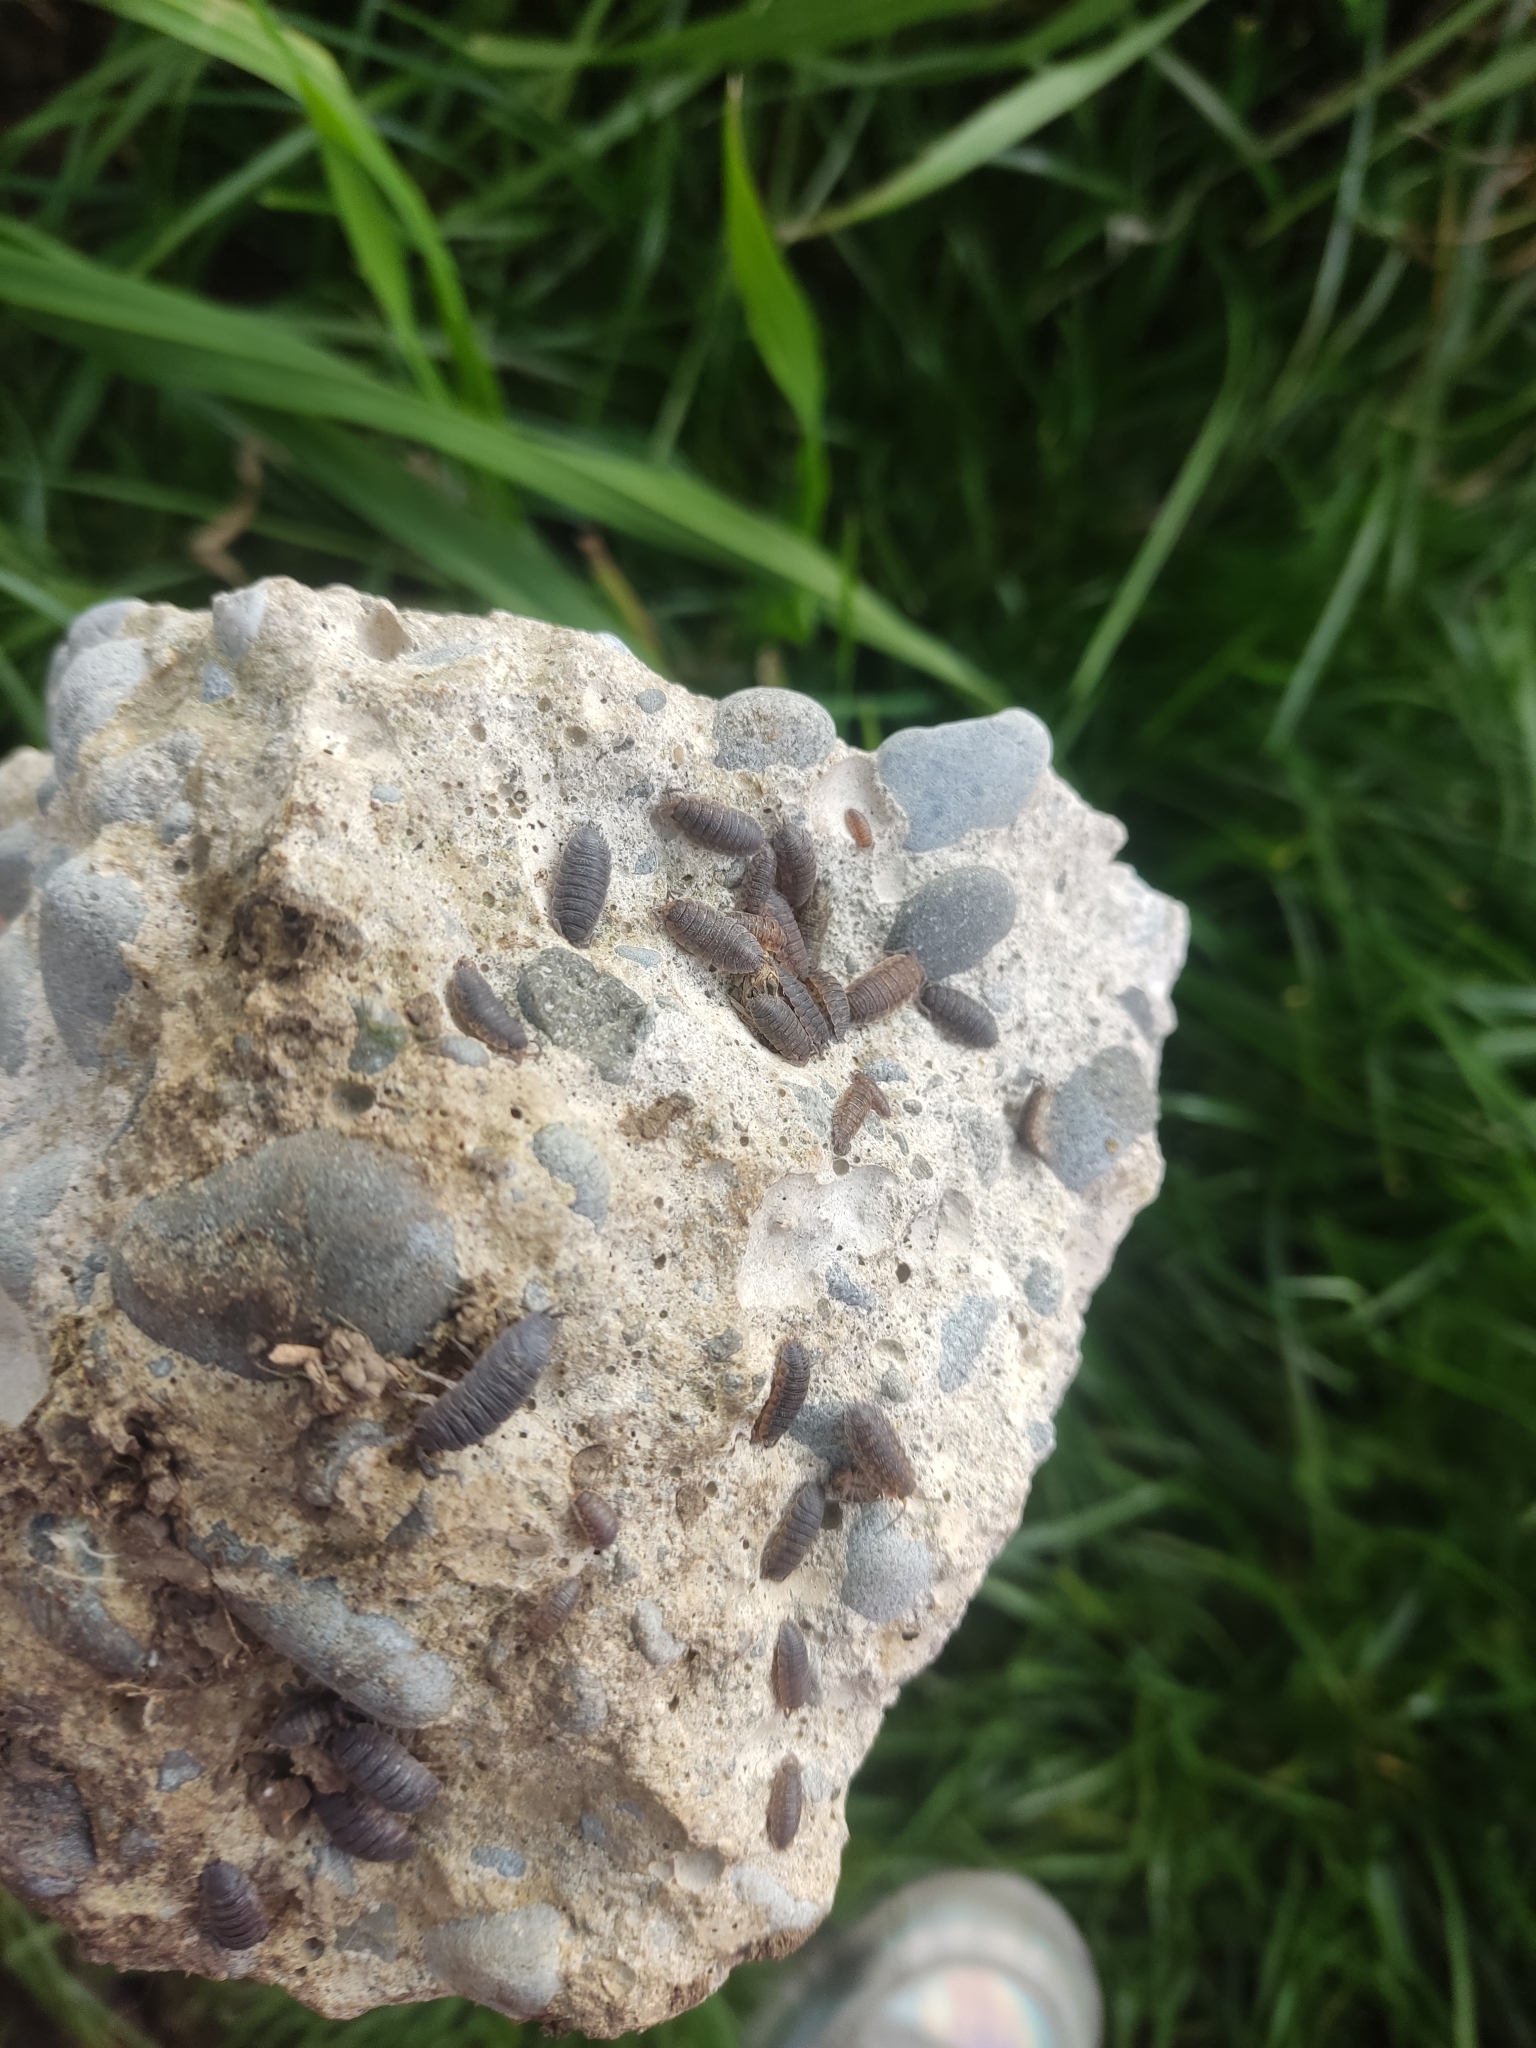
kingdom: Animalia
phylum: Arthropoda
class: Malacostraca
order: Isopoda
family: Porcellionidae
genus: Porcellio
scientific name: Porcellio scaber
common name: Common rough woodlouse
